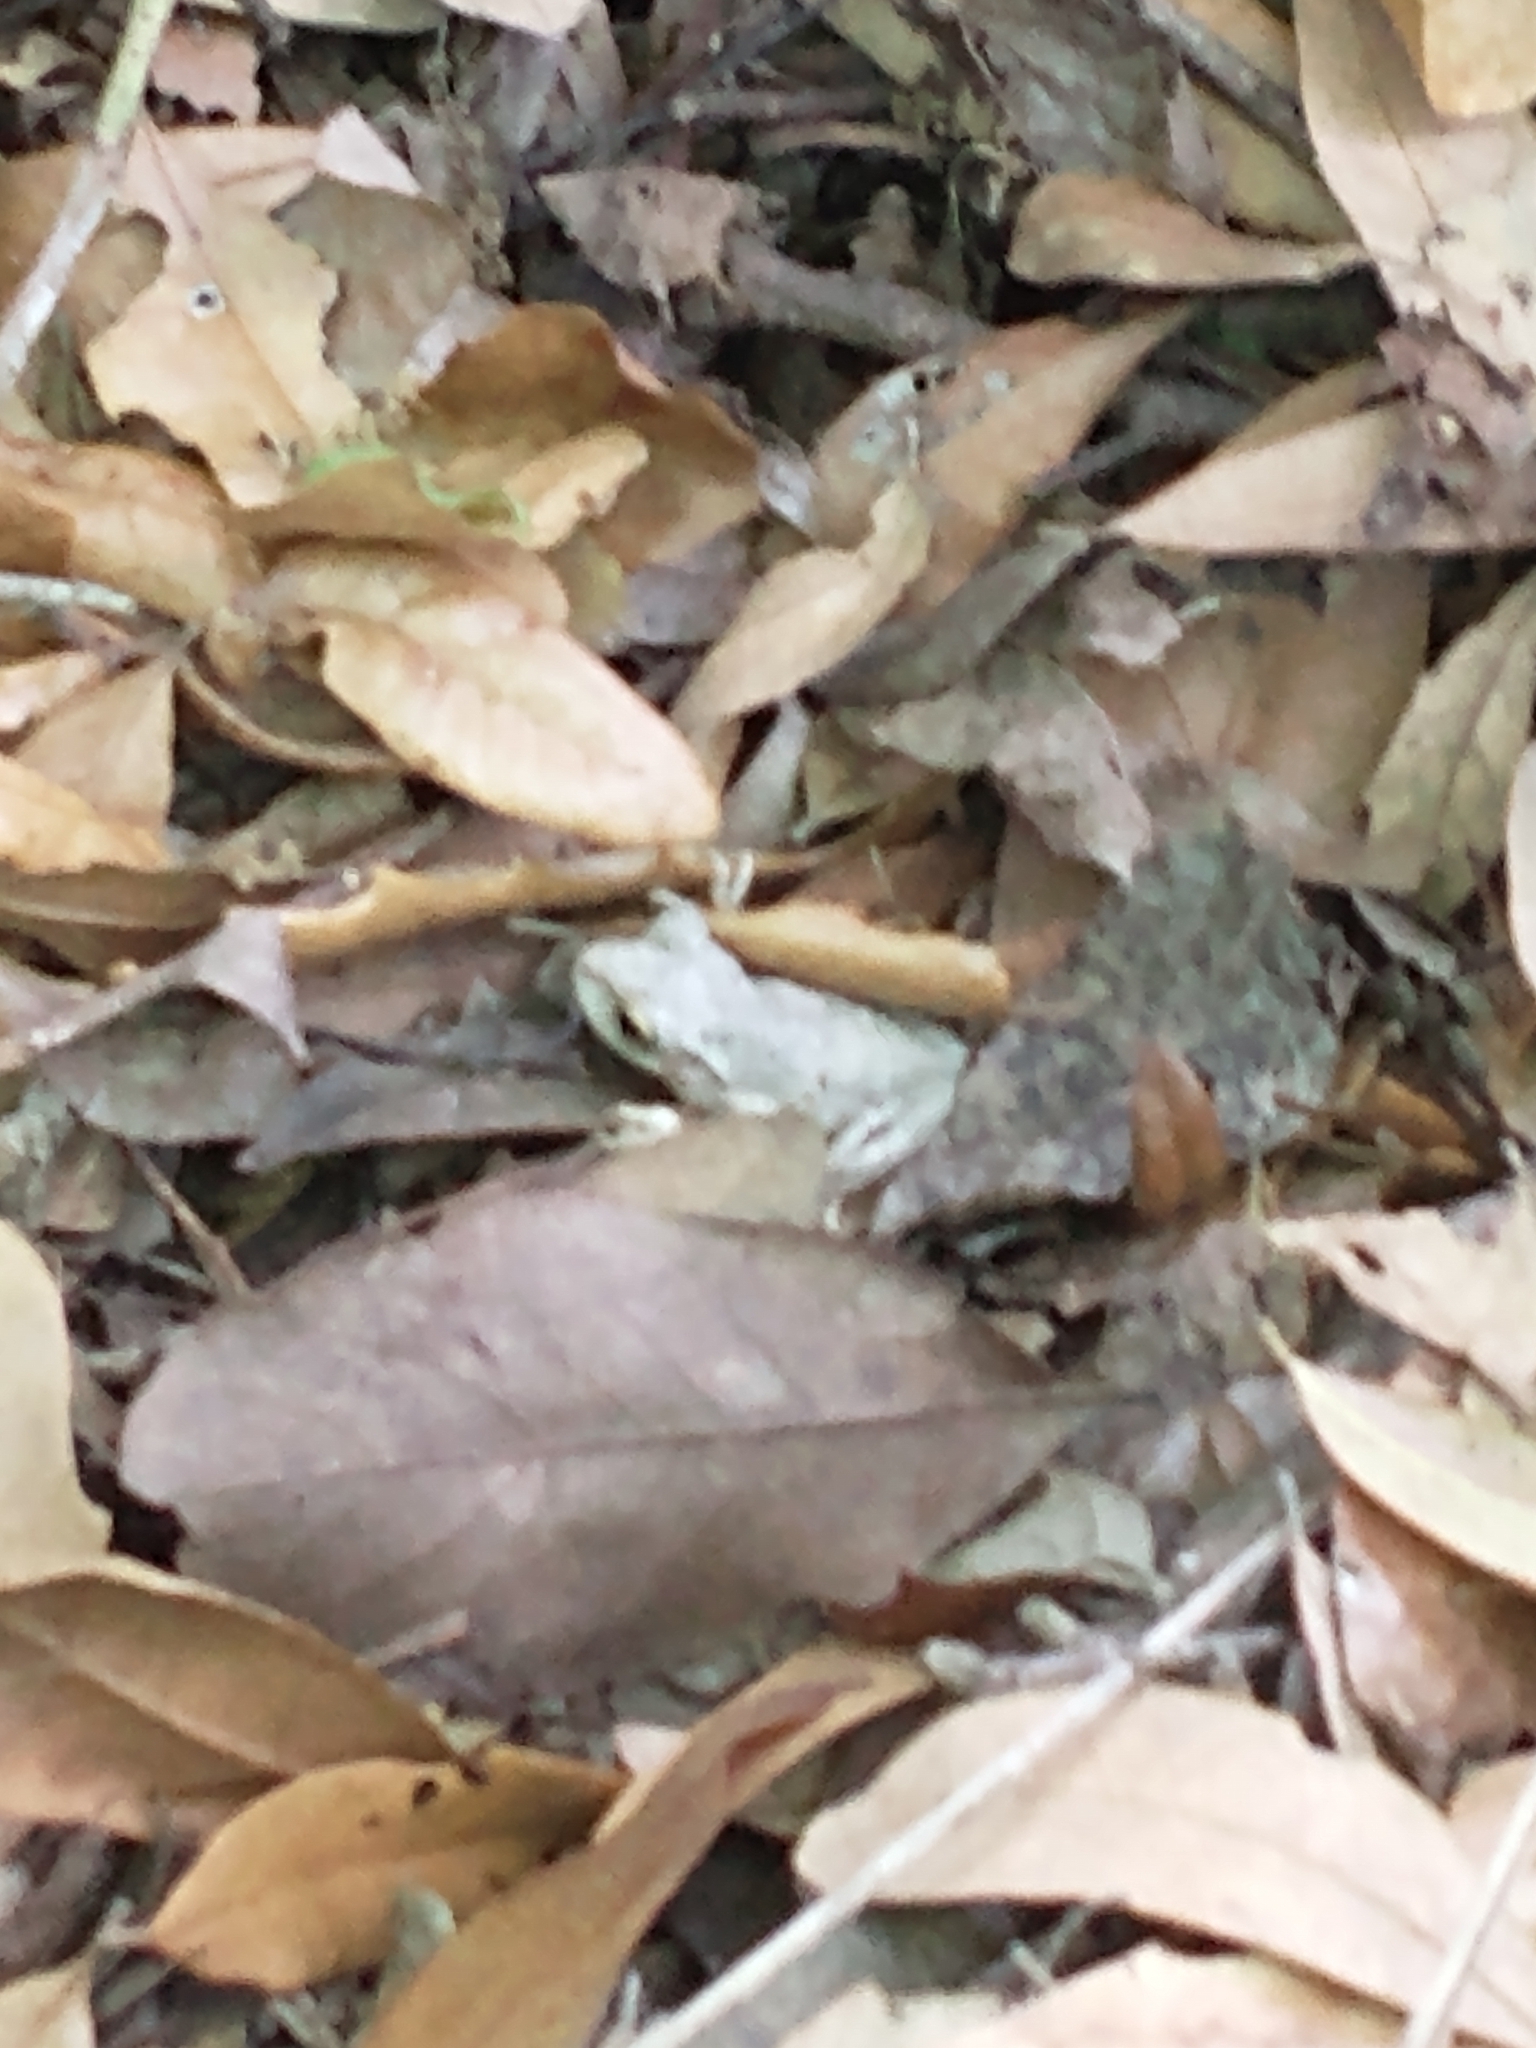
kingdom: Animalia
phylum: Chordata
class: Amphibia
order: Anura
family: Hylidae
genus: Osteopilus
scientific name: Osteopilus septentrionalis
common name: Cuban treefrog
